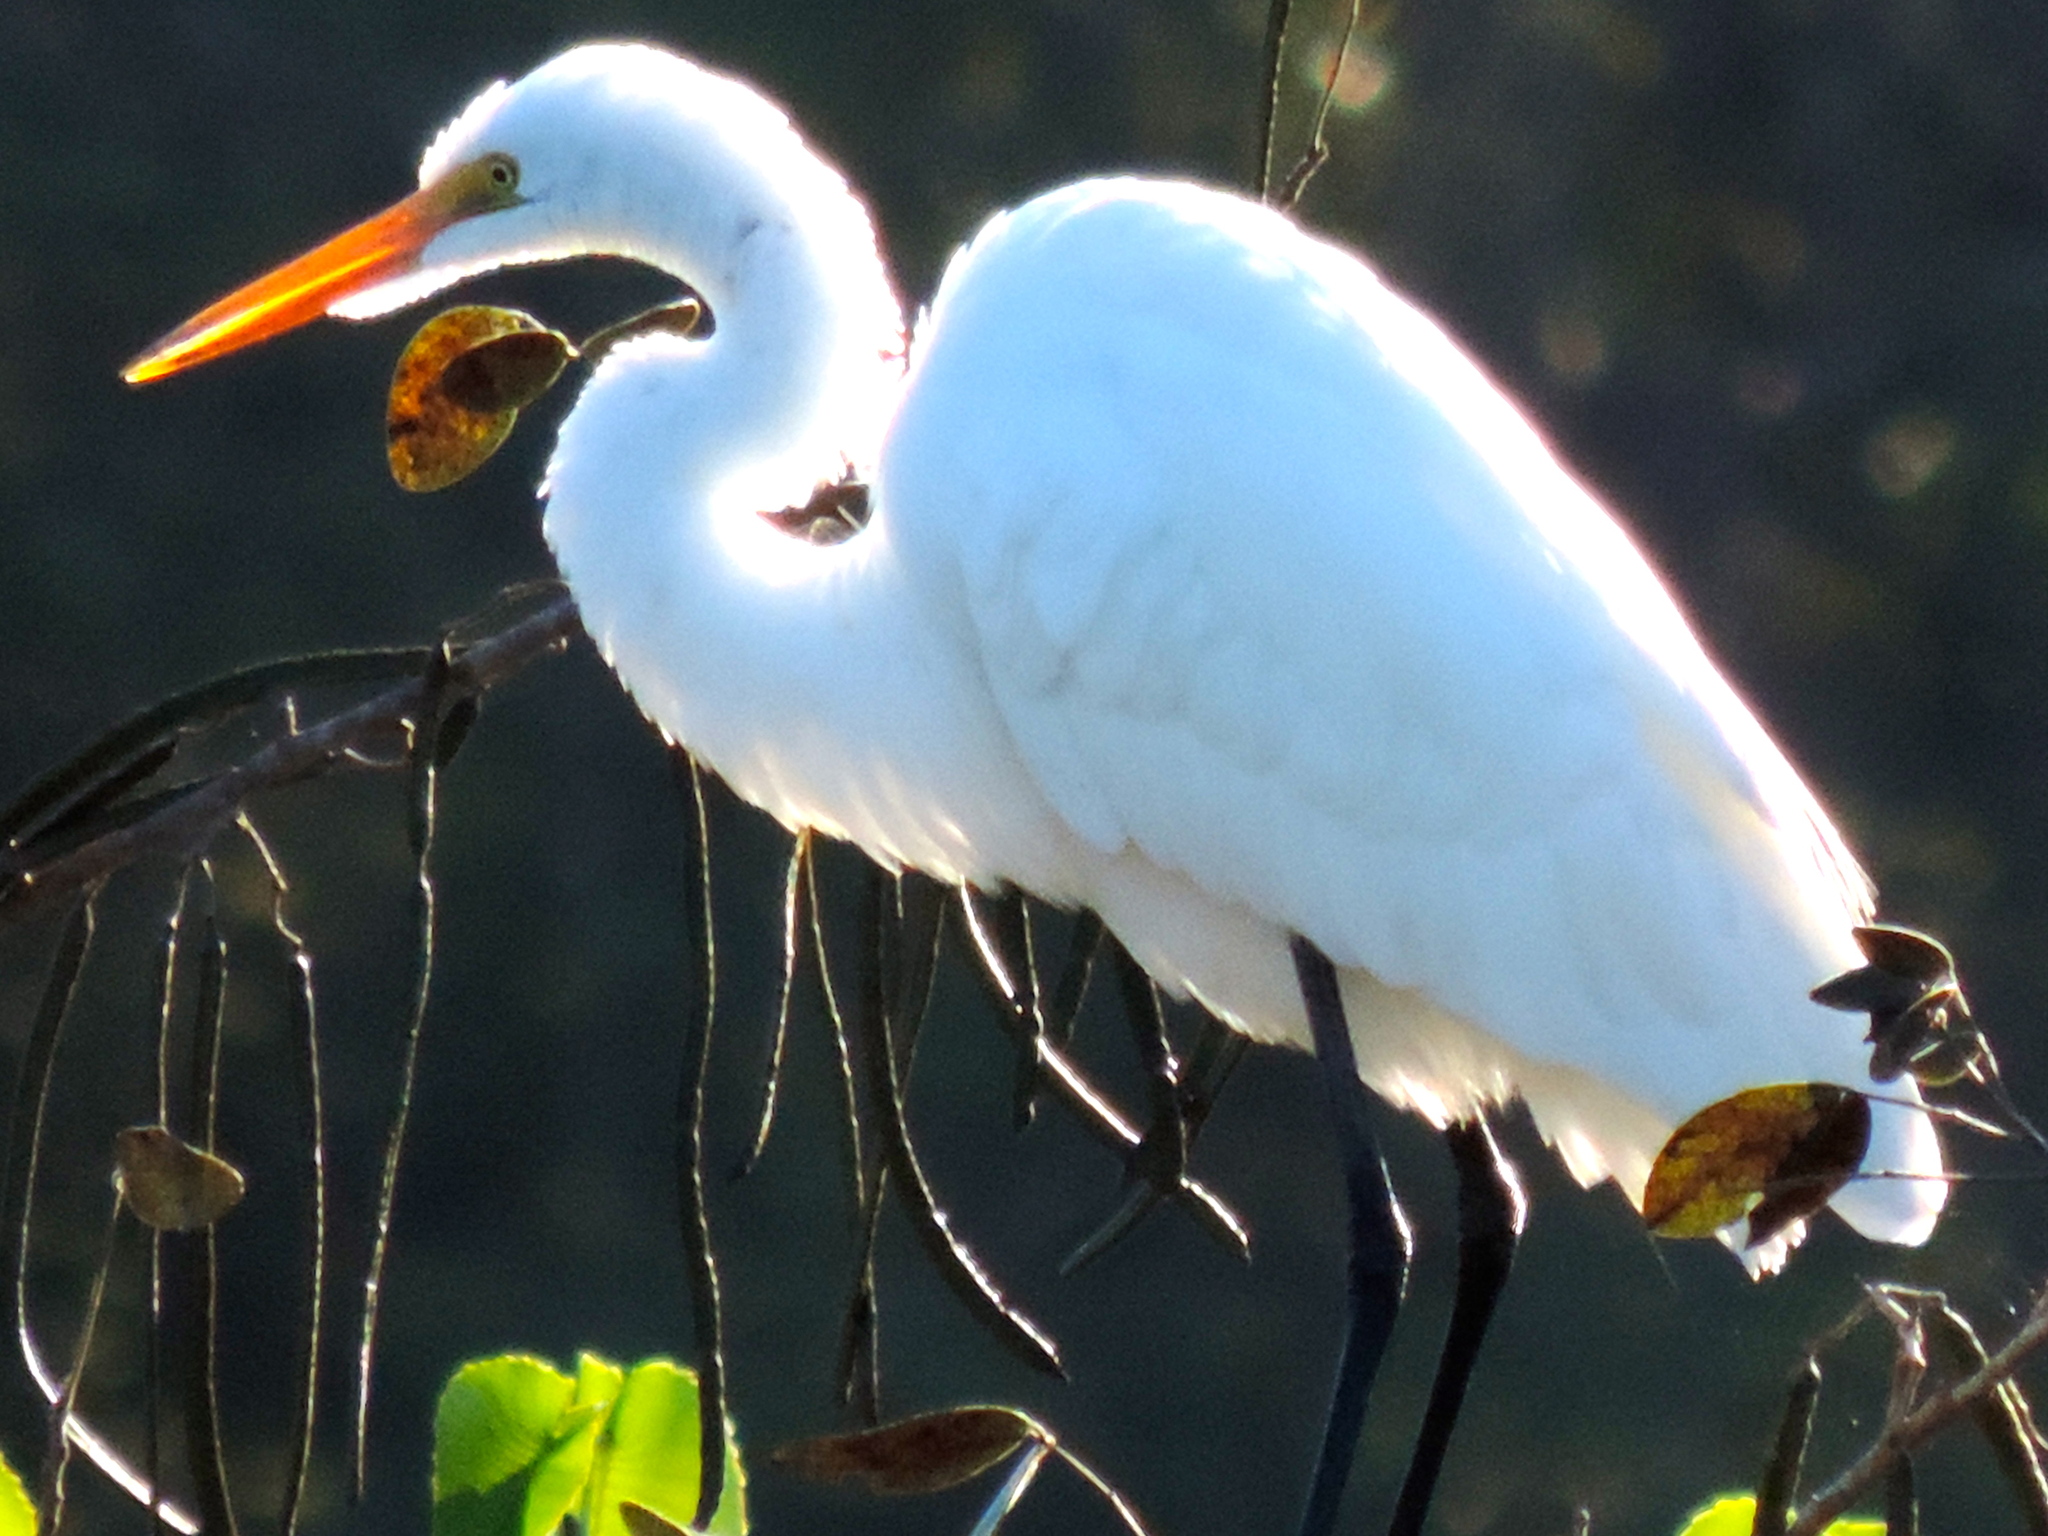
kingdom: Animalia
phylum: Chordata
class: Aves
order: Pelecaniformes
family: Ardeidae
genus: Ardea
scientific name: Ardea alba
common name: Great egret
